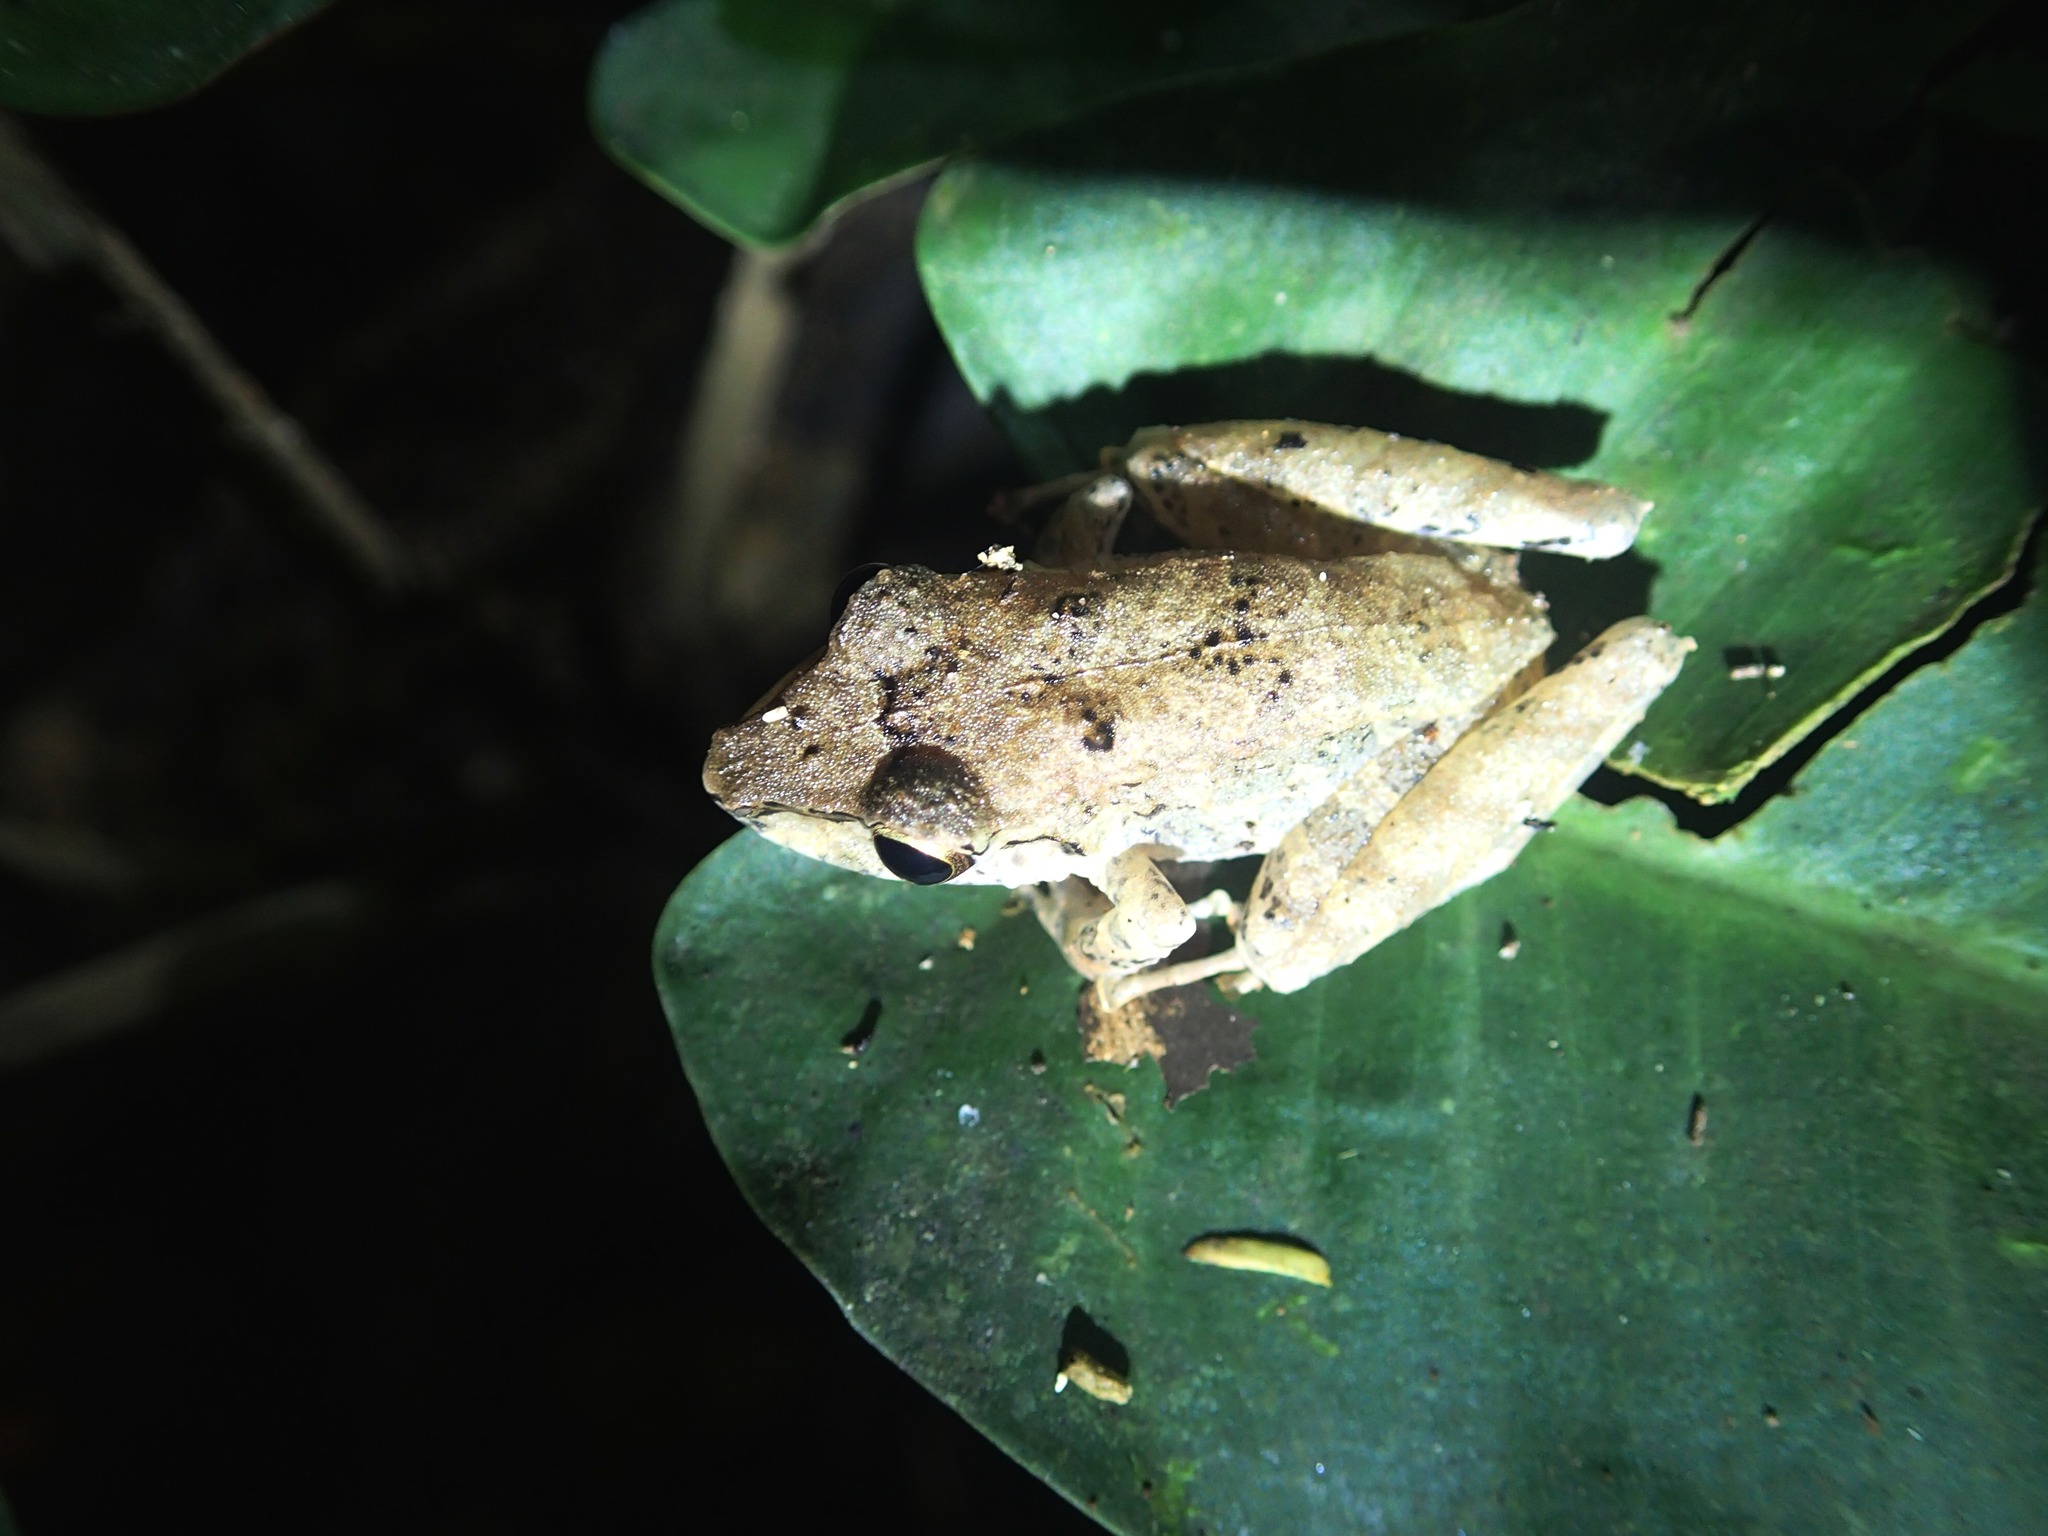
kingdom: Animalia
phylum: Chordata
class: Amphibia
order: Anura
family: Craugastoridae
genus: Pristimantis
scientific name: Pristimantis lanthanites
